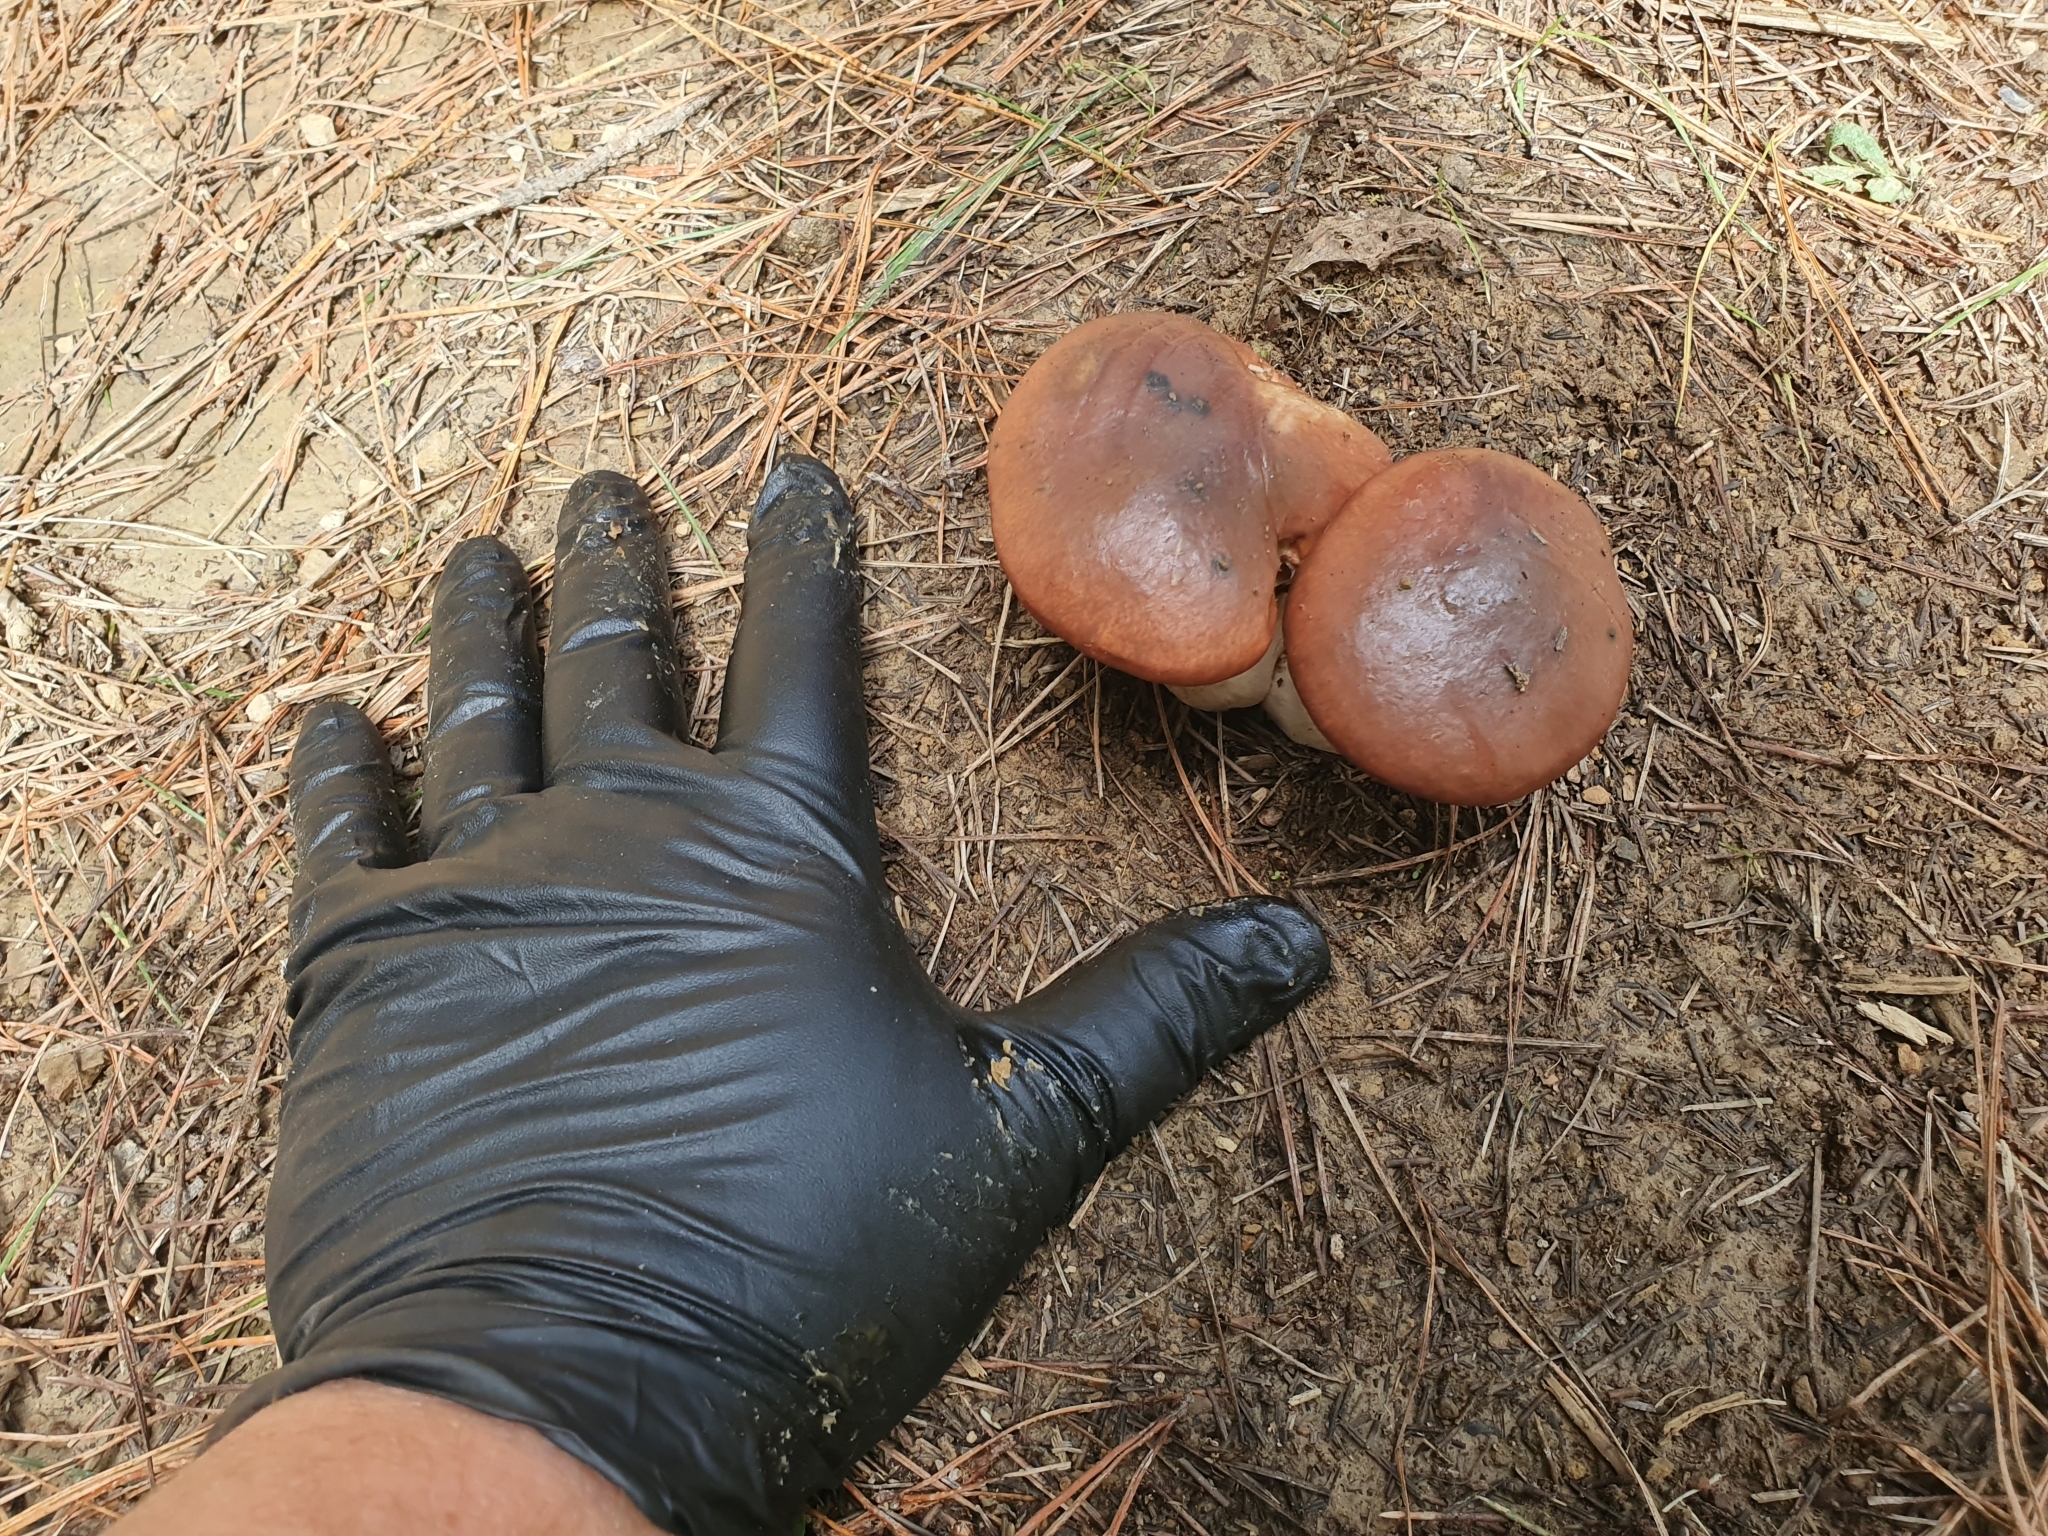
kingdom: Fungi
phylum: Basidiomycota
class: Agaricomycetes
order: Boletales
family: Suillaceae
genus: Suillus
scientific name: Suillus luteus
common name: Slippery jack
